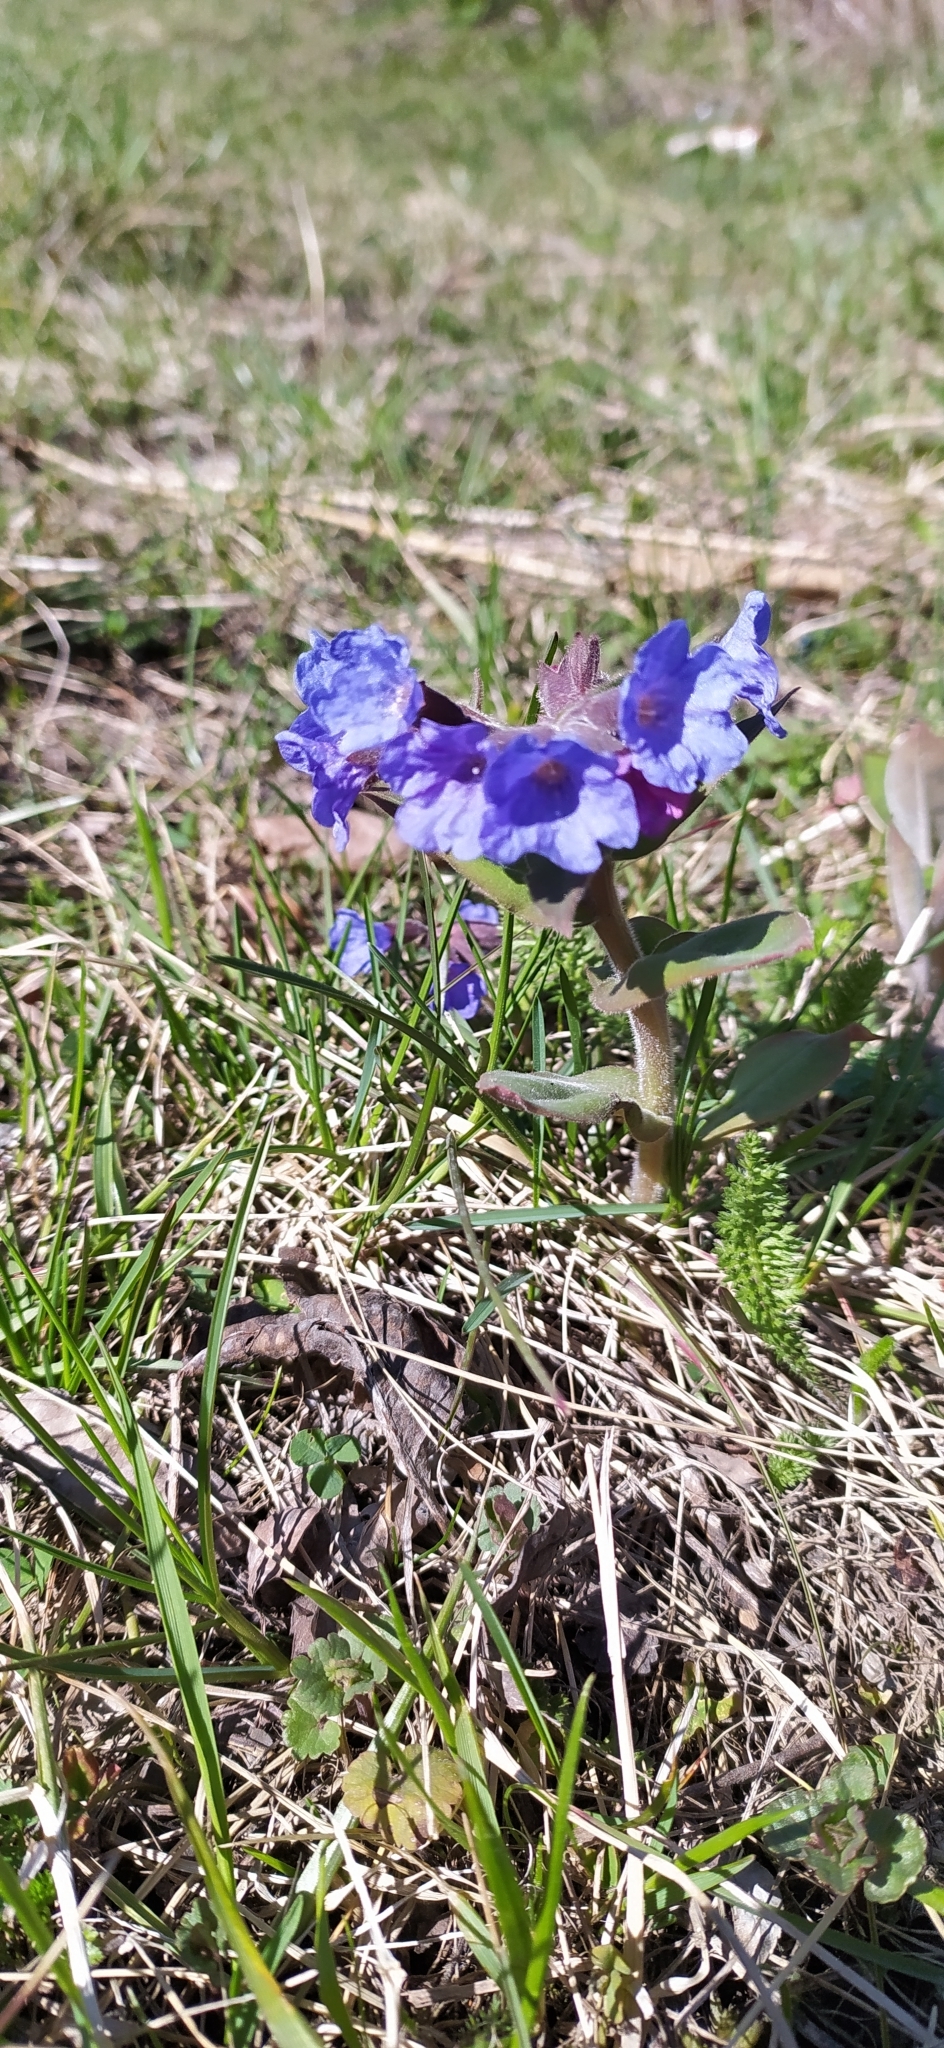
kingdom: Plantae
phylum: Tracheophyta
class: Magnoliopsida
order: Boraginales
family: Boraginaceae
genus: Pulmonaria
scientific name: Pulmonaria mollis
